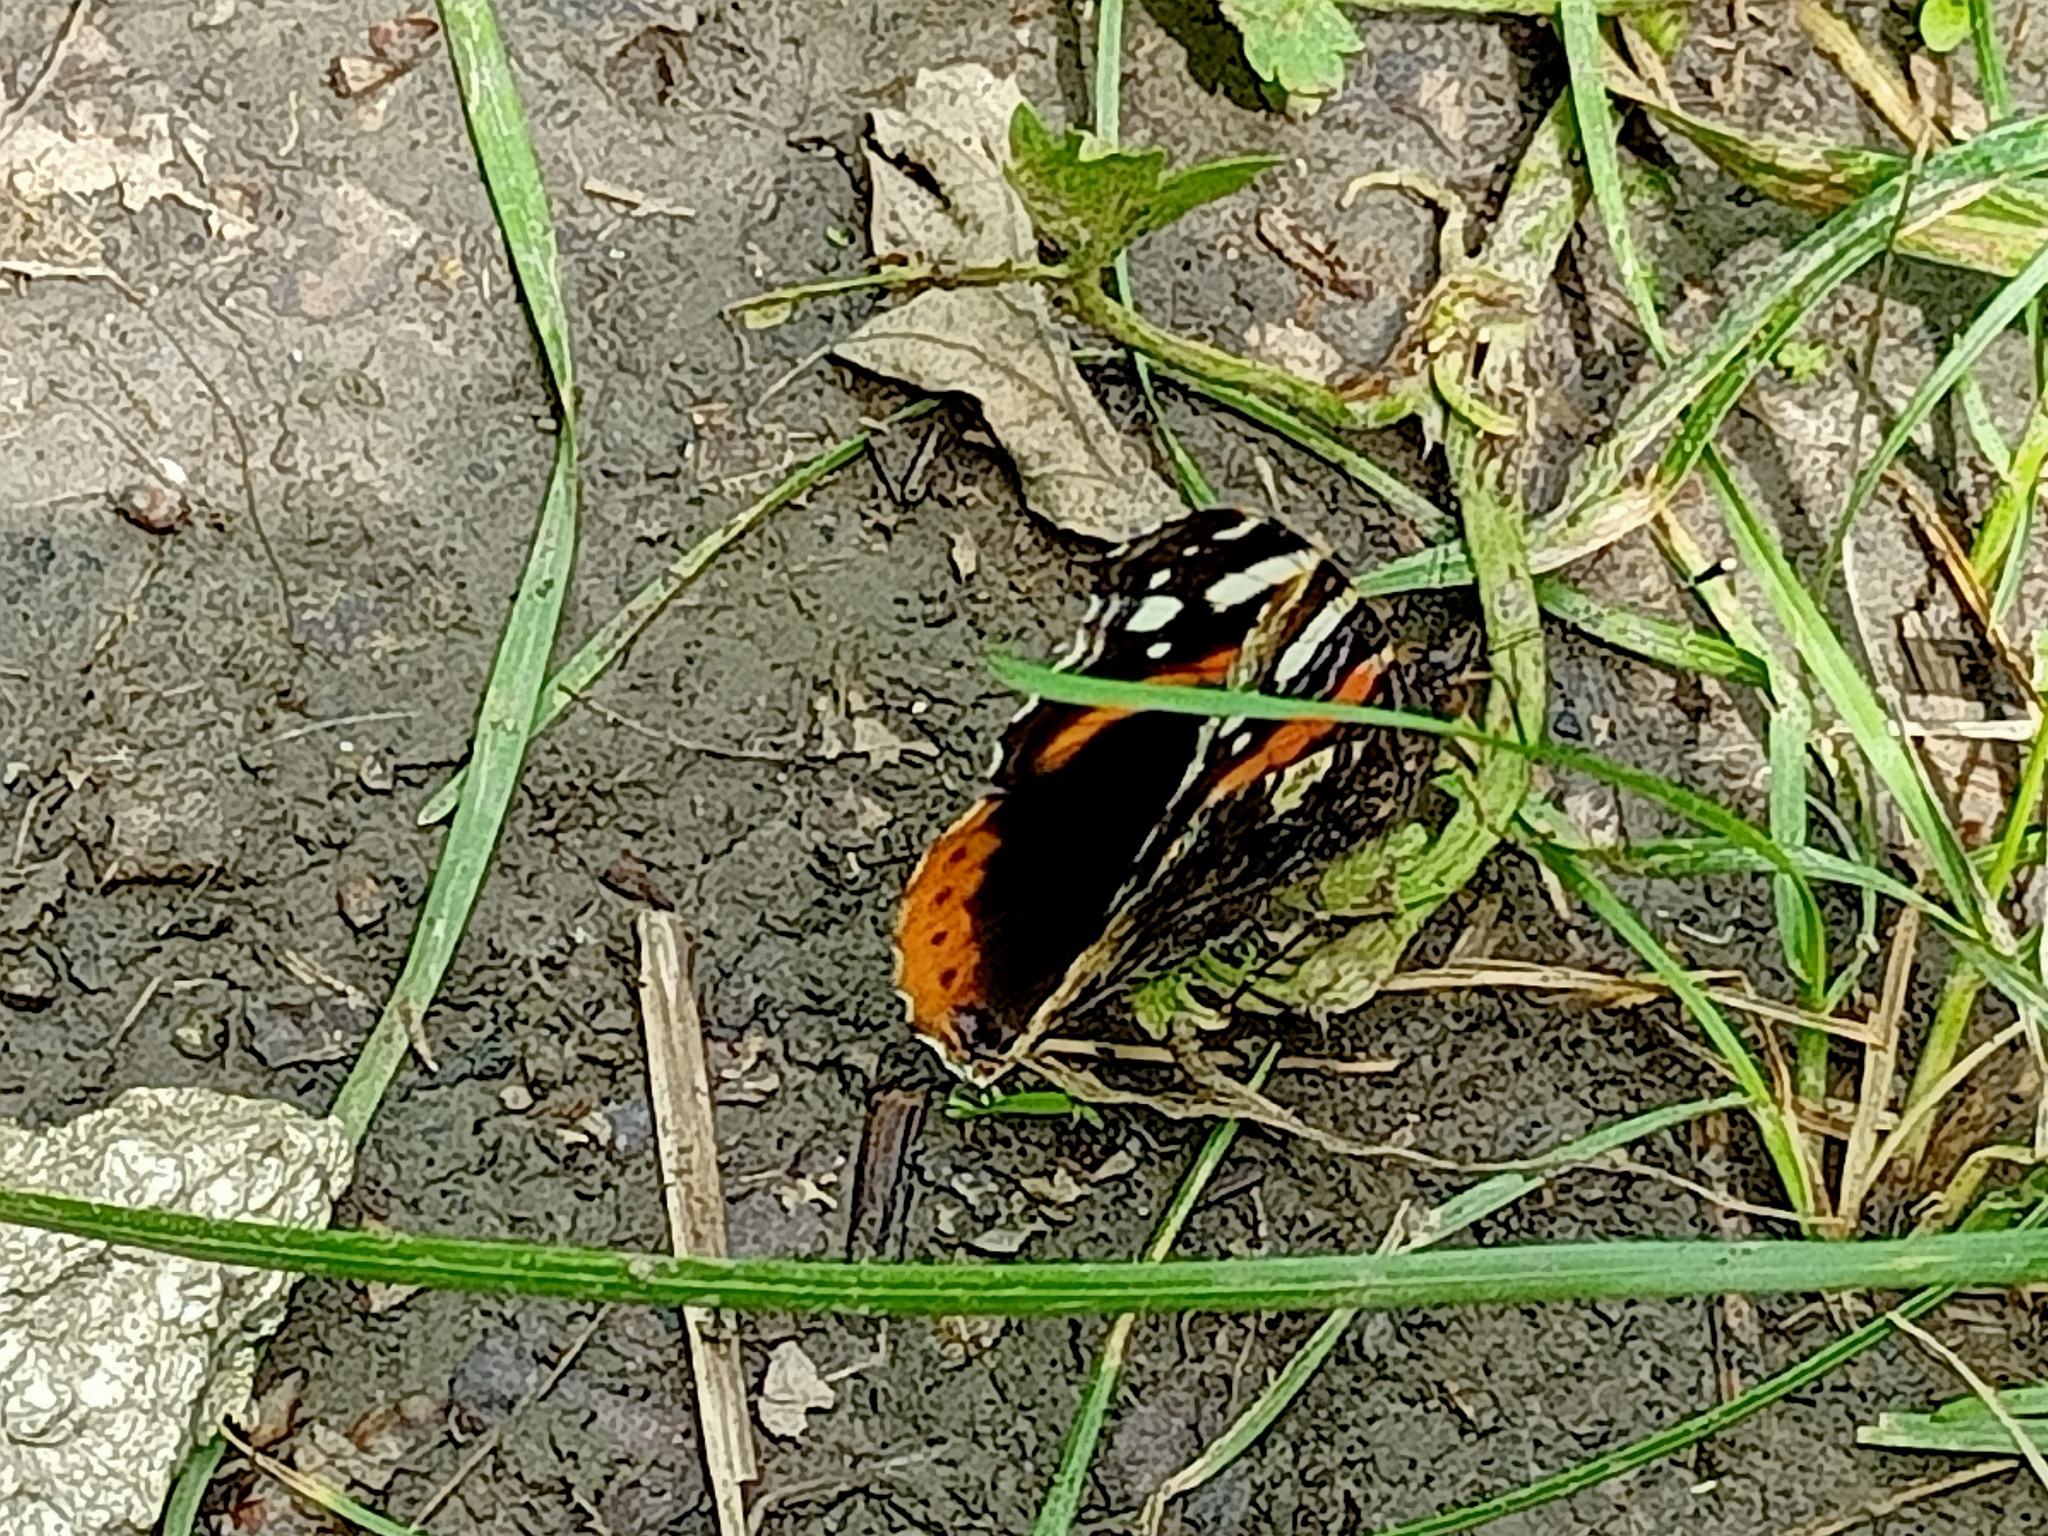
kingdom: Animalia
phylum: Arthropoda
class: Insecta
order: Lepidoptera
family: Nymphalidae
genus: Vanessa
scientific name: Vanessa atalanta
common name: Red admiral
